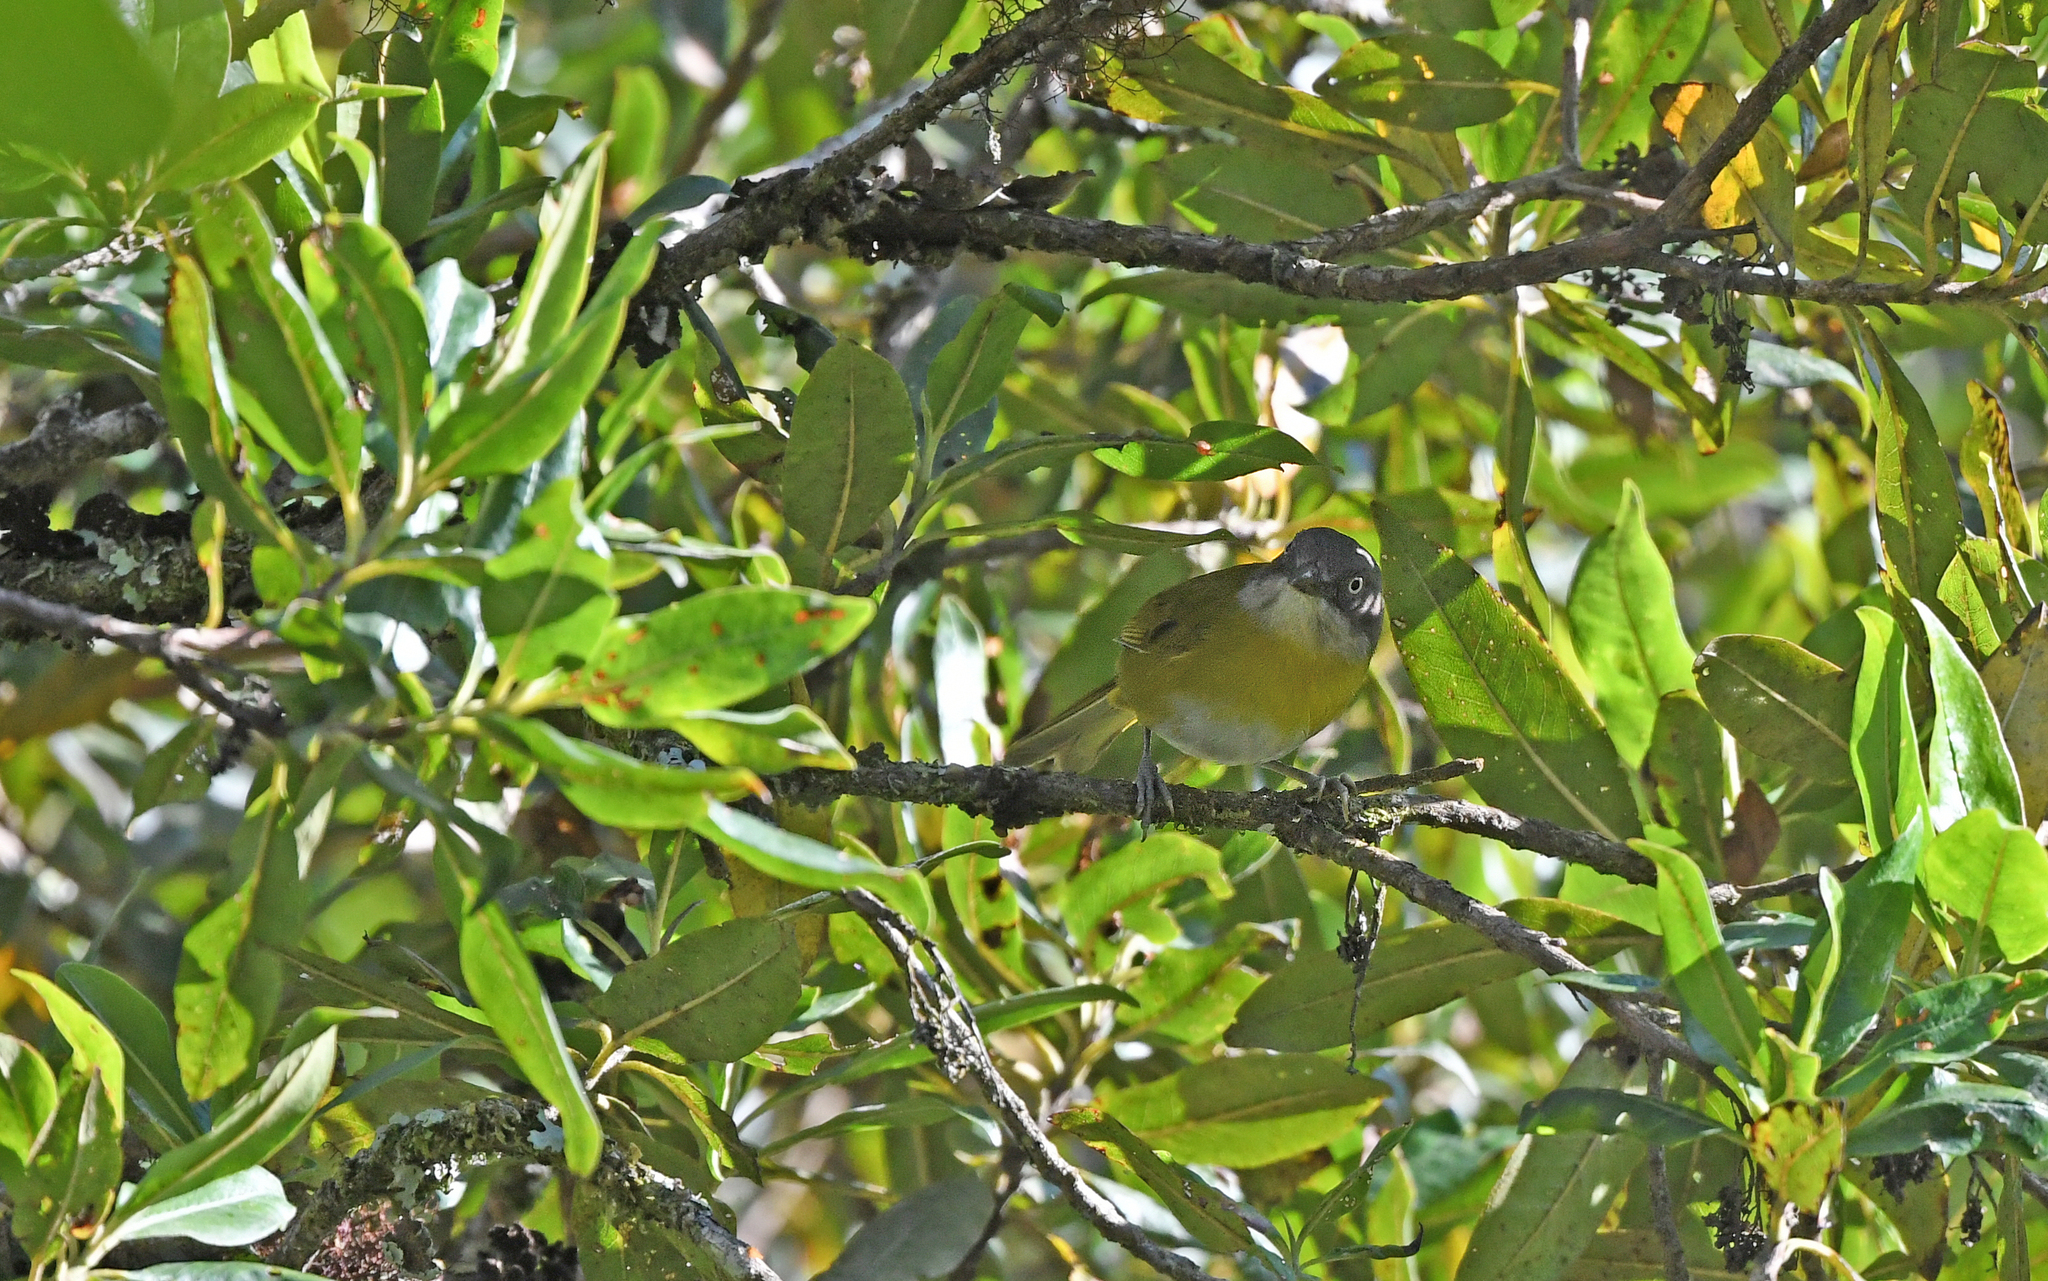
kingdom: Animalia
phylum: Chordata
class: Aves
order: Passeriformes
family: Passerellidae
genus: Chlorospingus
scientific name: Chlorospingus flavopectus
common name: Common chlorospingus
